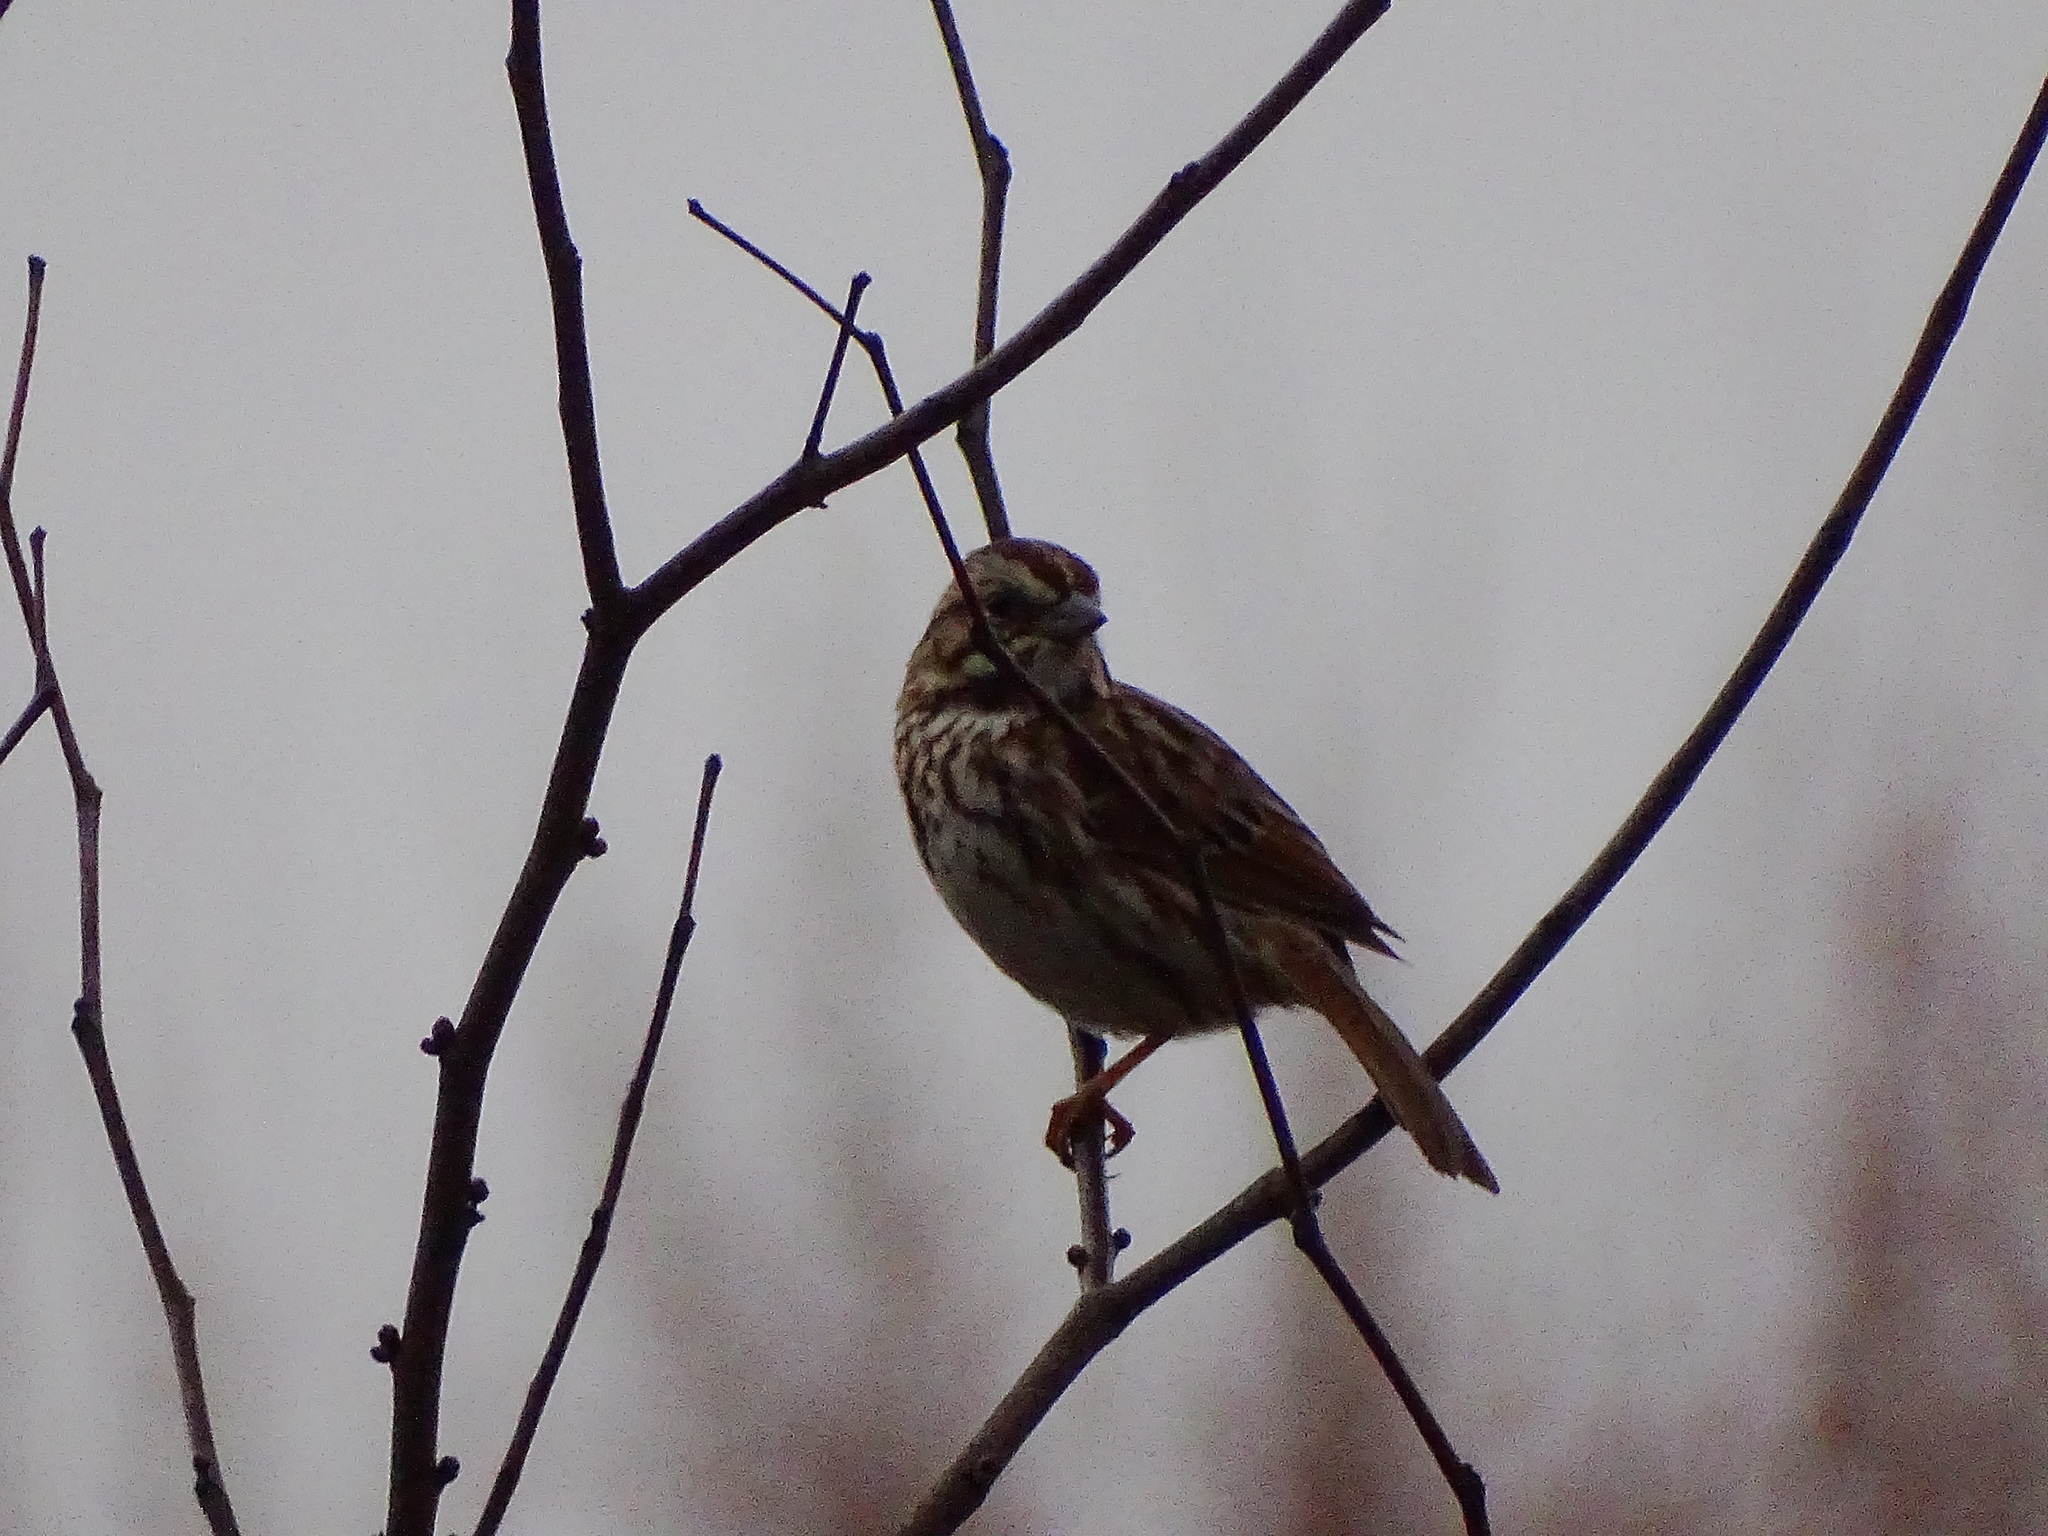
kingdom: Animalia
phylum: Chordata
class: Aves
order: Passeriformes
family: Passerellidae
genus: Melospiza
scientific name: Melospiza melodia
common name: Song sparrow
